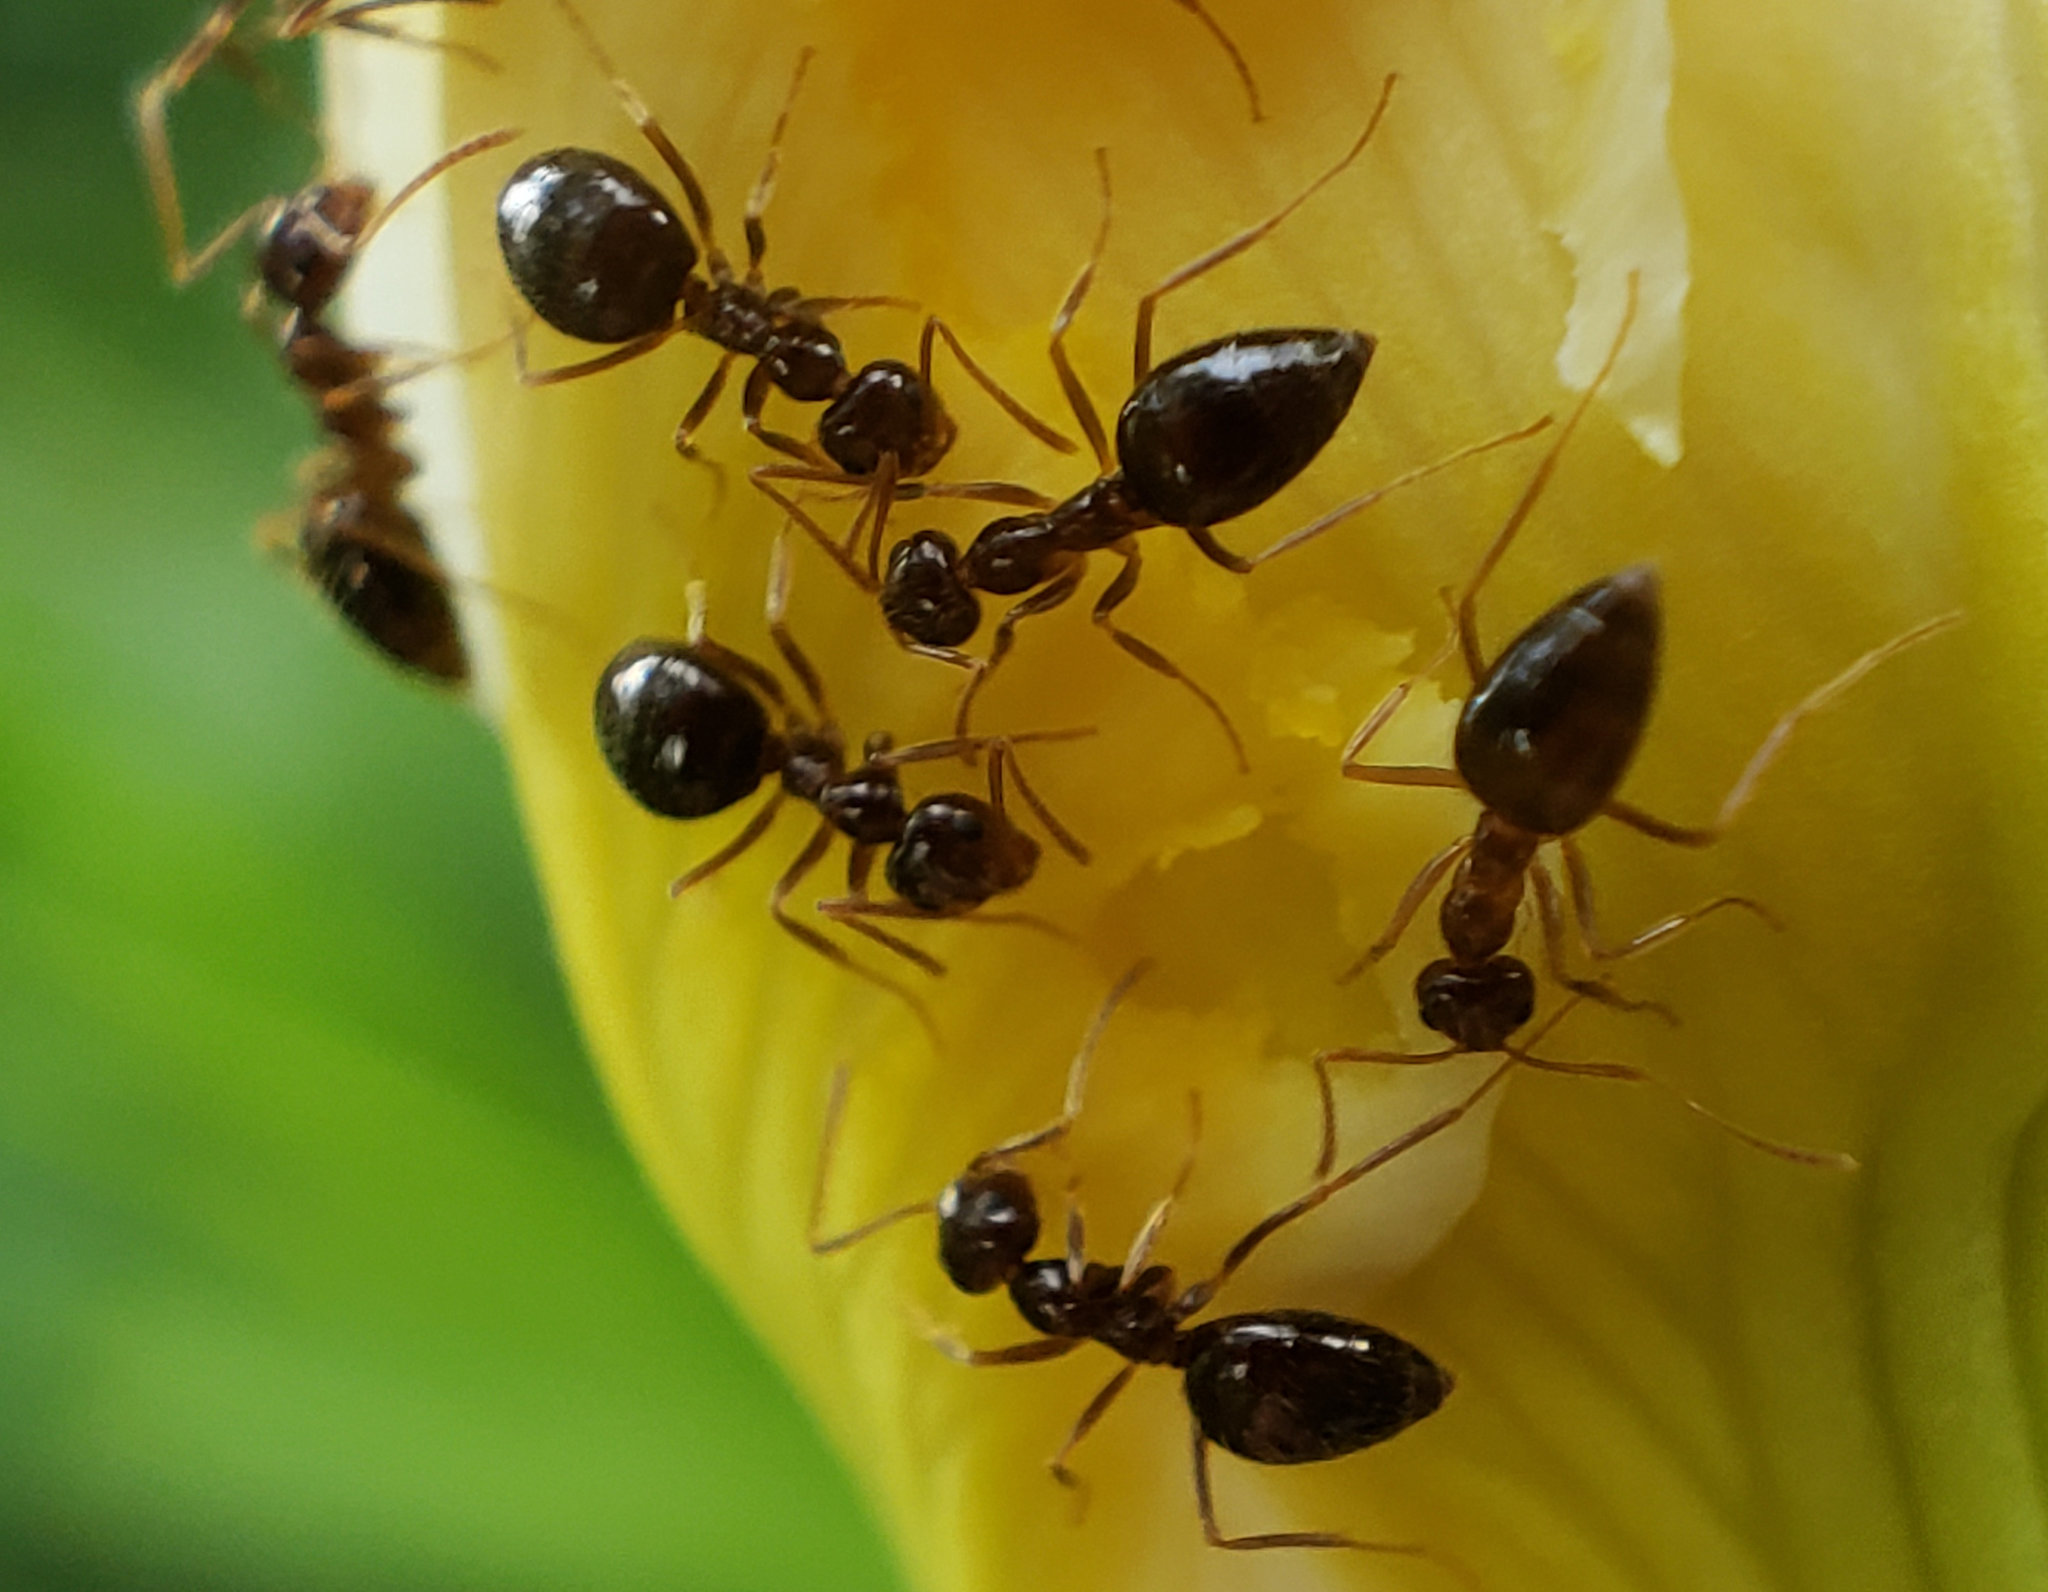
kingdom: Animalia
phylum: Arthropoda
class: Insecta
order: Hymenoptera
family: Formicidae
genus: Prenolepis
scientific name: Prenolepis imparis
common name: Small honey ant
